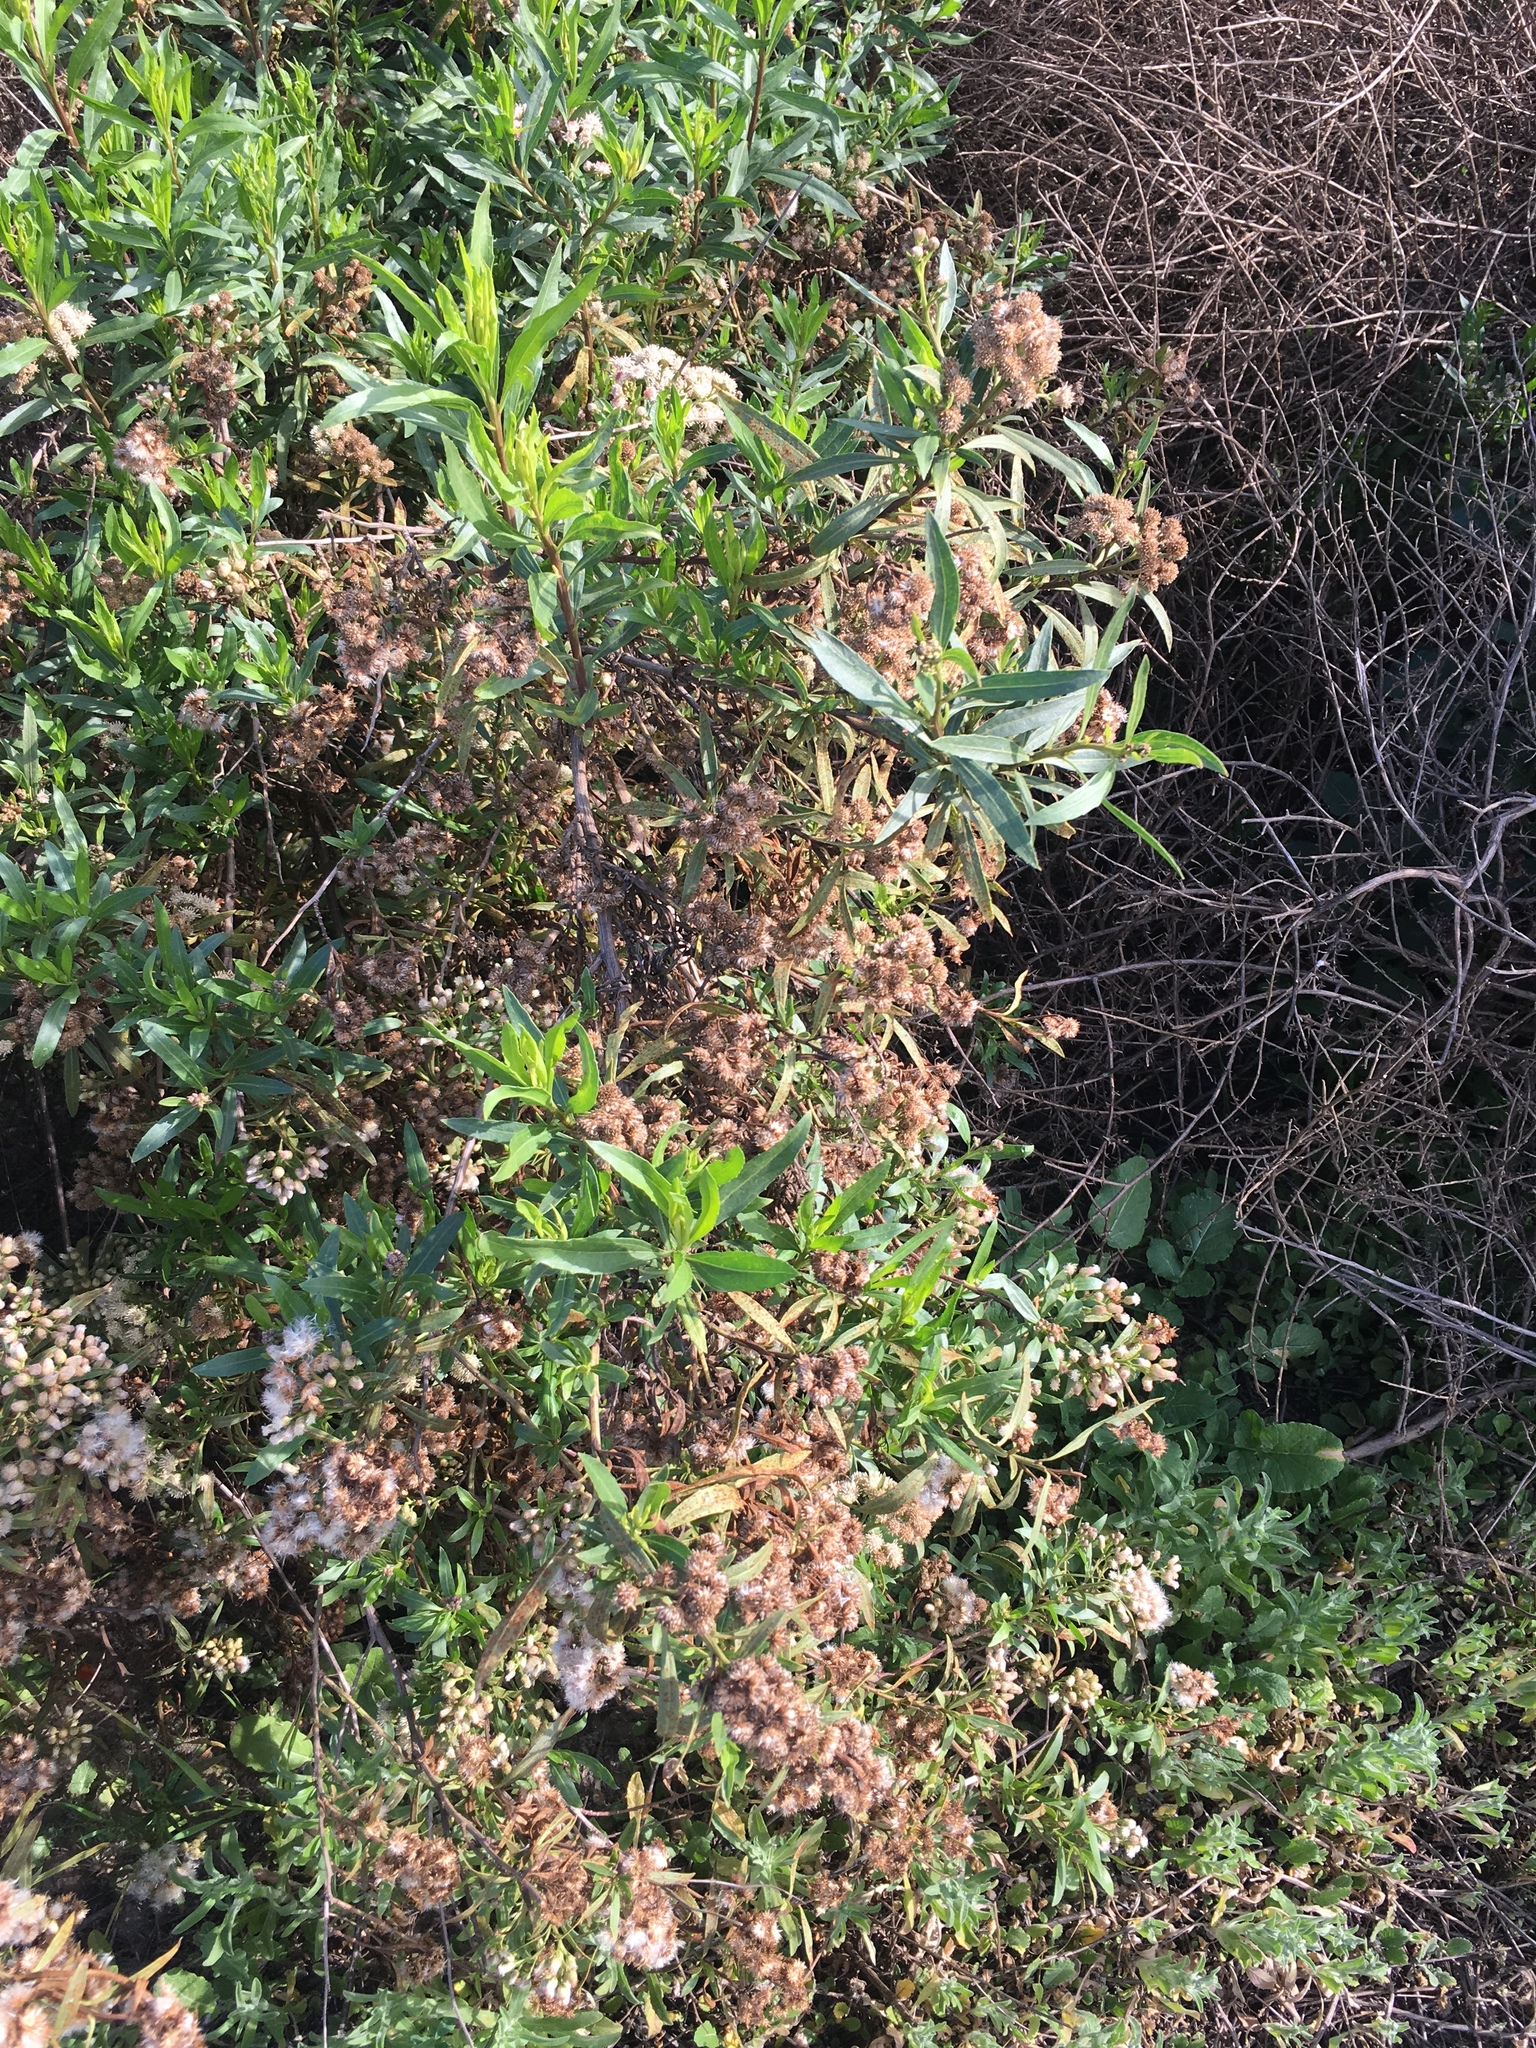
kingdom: Plantae
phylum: Tracheophyta
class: Magnoliopsida
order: Asterales
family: Asteraceae
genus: Baccharis
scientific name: Baccharis salicifolia
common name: Sticky baccharis
